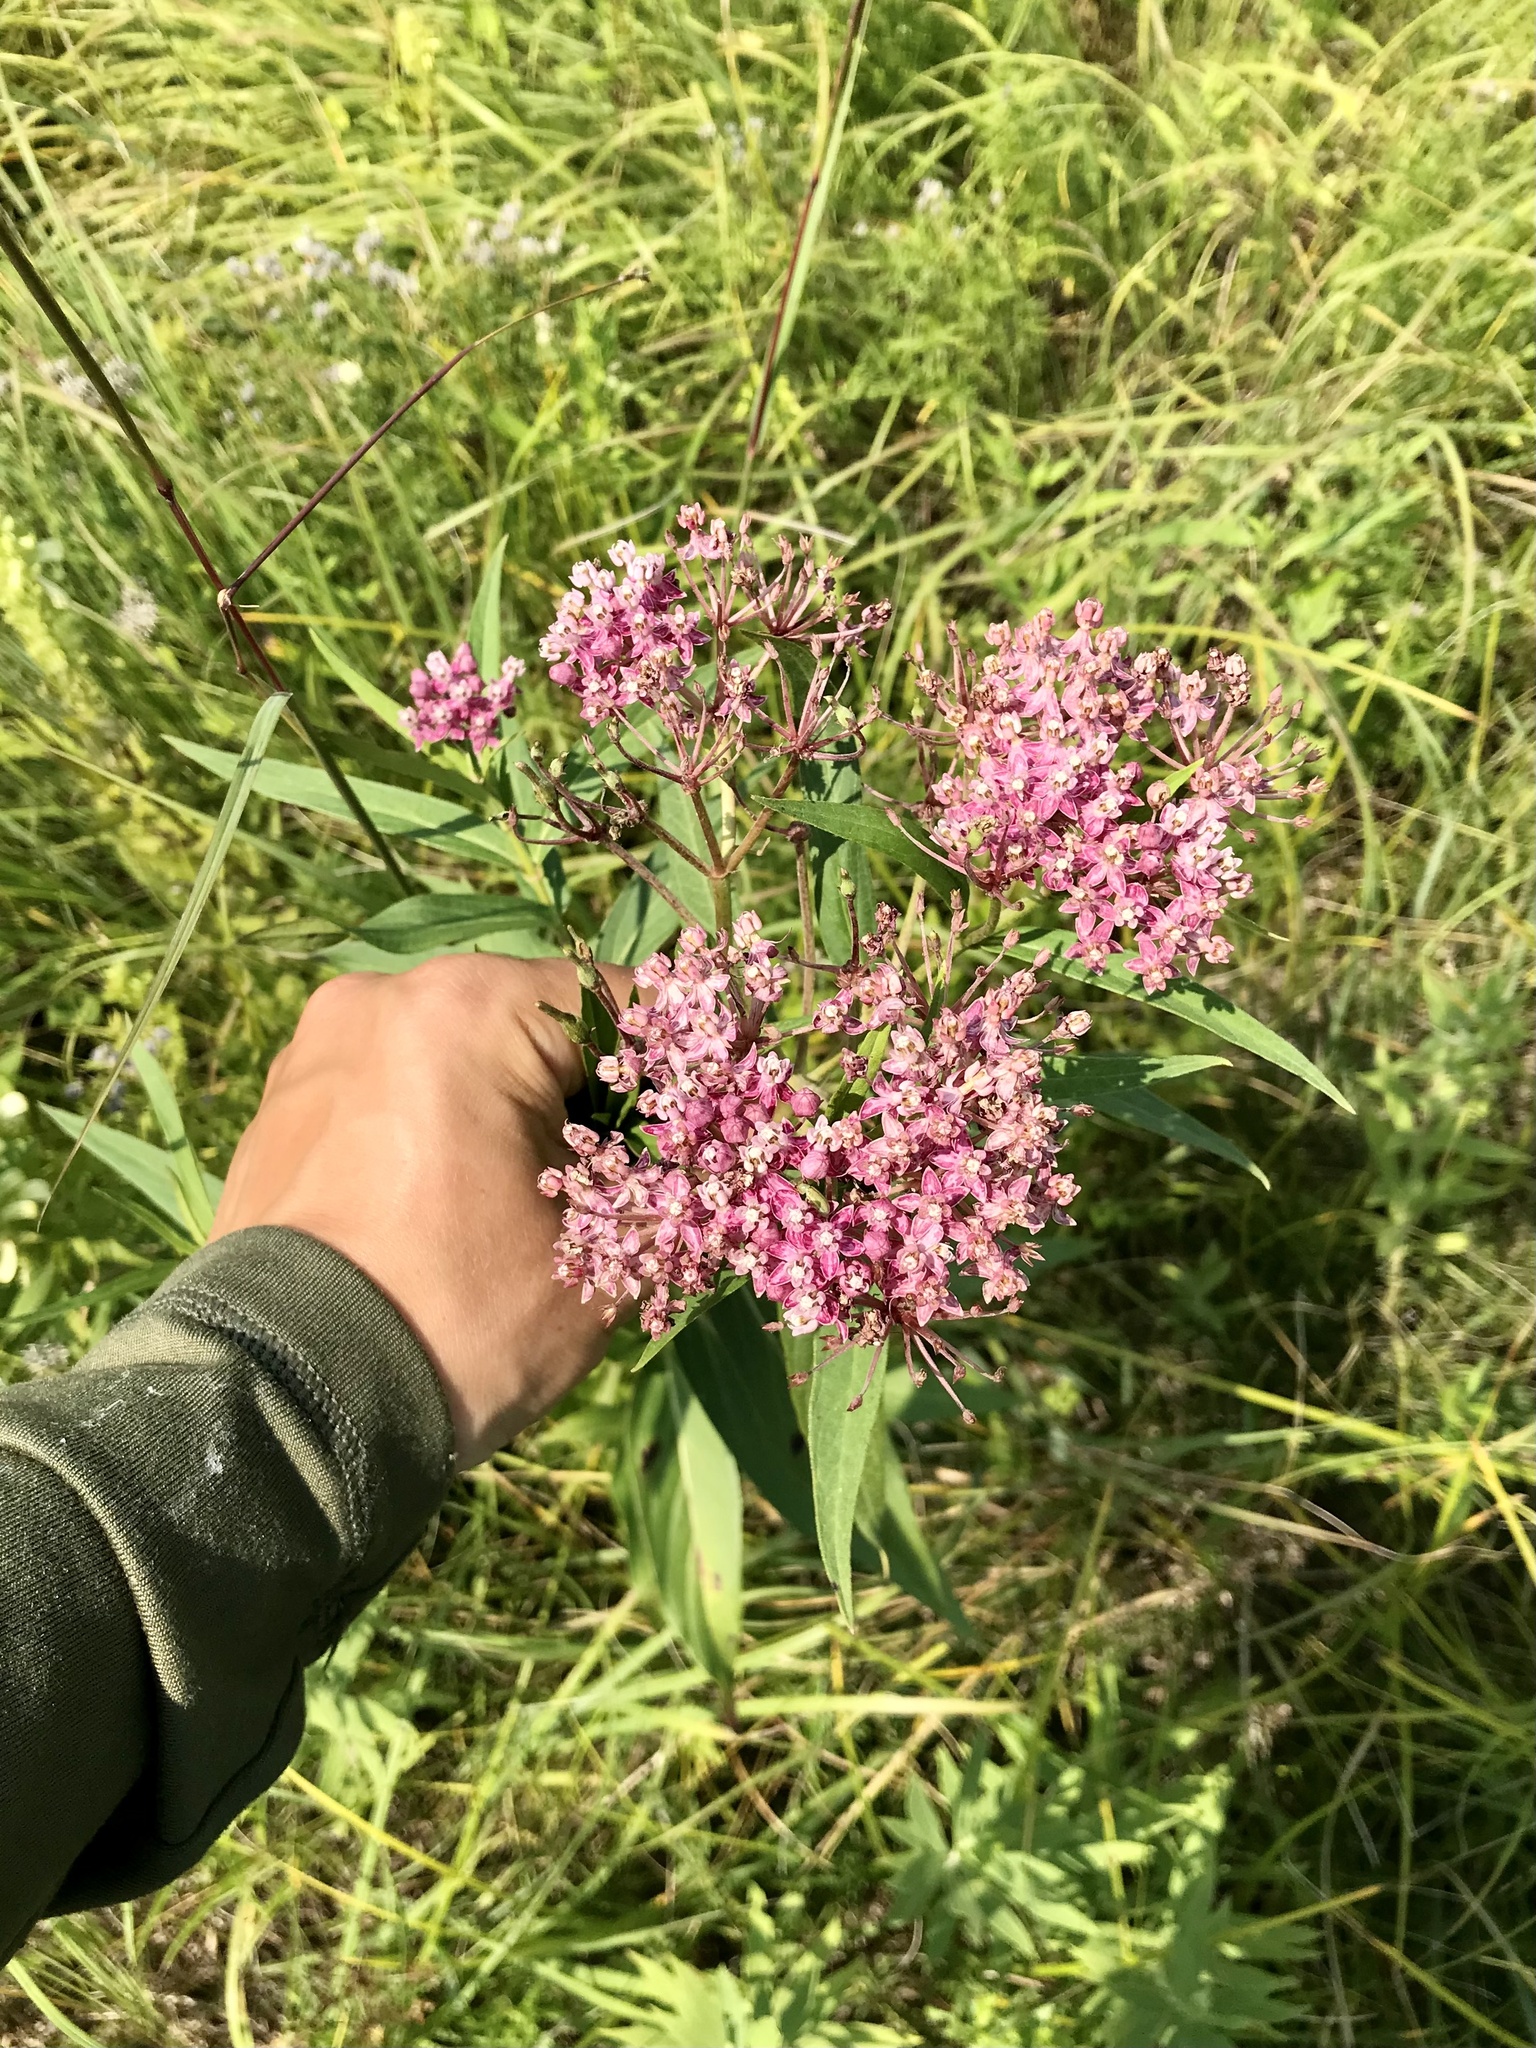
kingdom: Plantae
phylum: Tracheophyta
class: Magnoliopsida
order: Gentianales
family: Apocynaceae
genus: Asclepias
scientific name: Asclepias incarnata
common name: Swamp milkweed
